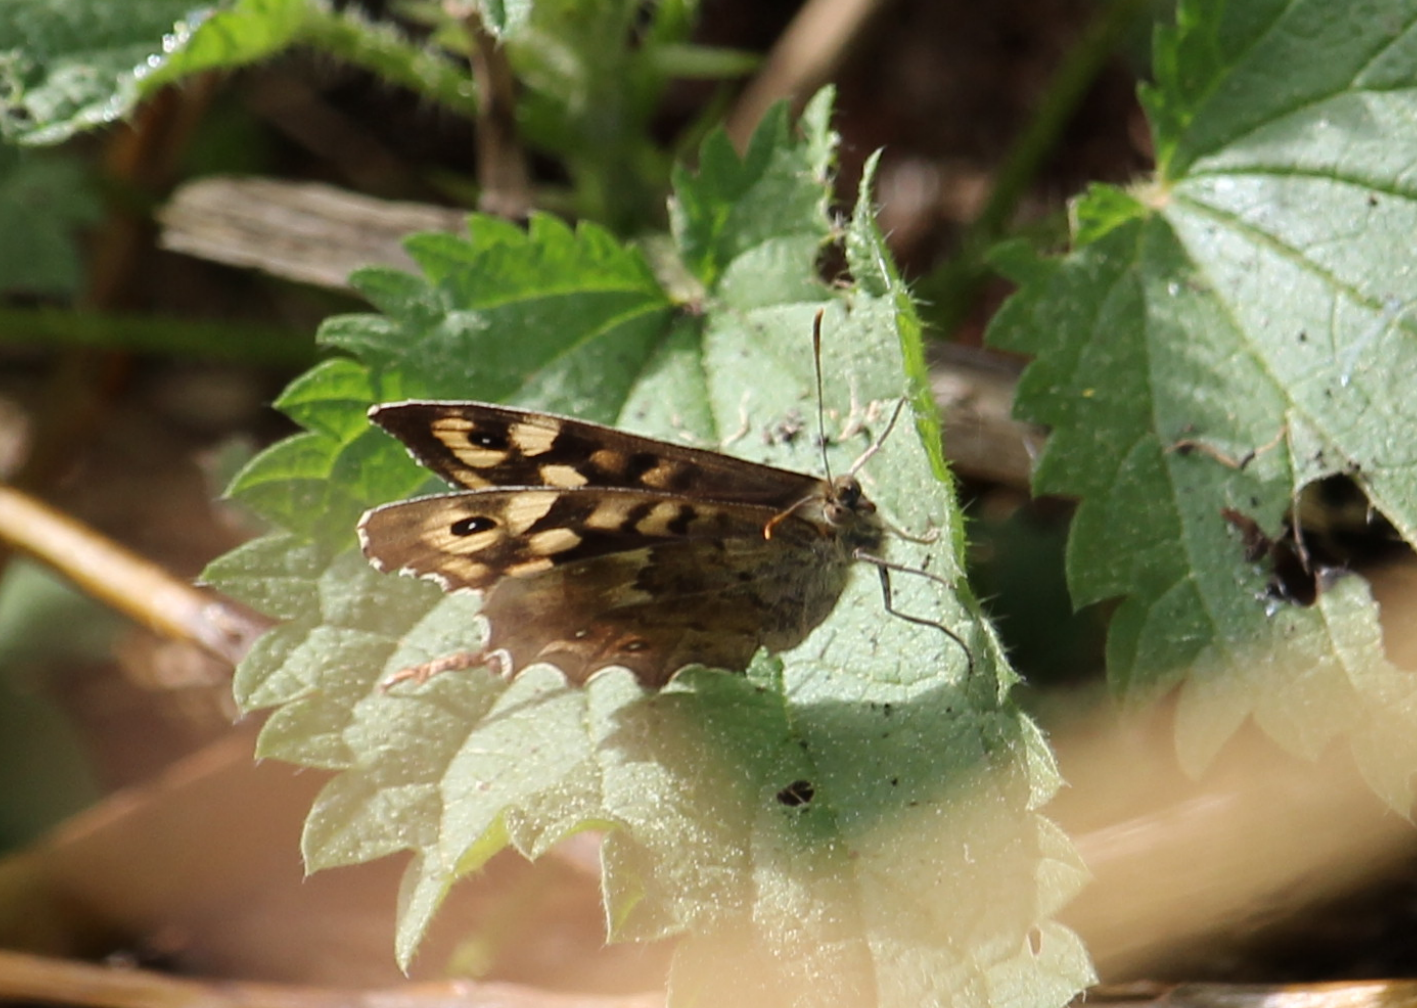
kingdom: Animalia
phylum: Arthropoda
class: Insecta
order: Lepidoptera
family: Nymphalidae
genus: Pararge
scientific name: Pararge aegeria
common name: Speckled wood
